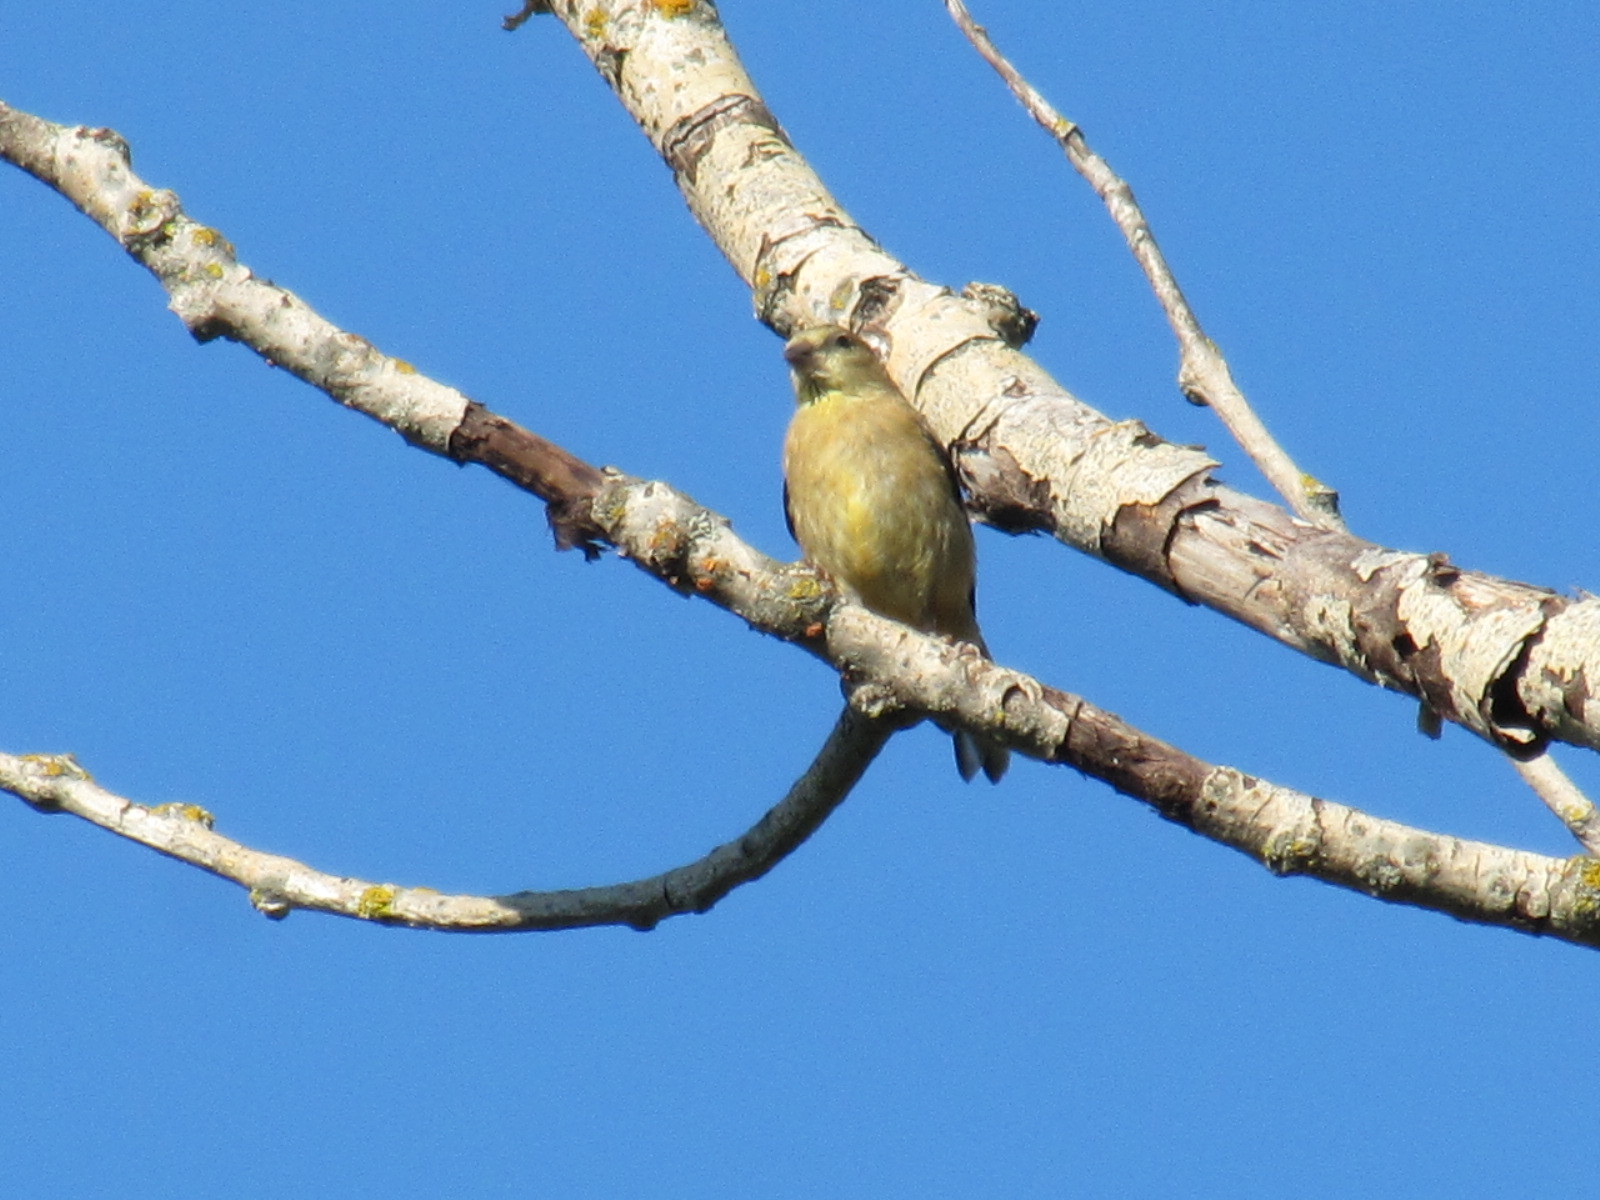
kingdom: Animalia
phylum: Chordata
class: Aves
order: Passeriformes
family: Fringillidae
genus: Spinus
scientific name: Spinus tristis
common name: American goldfinch
